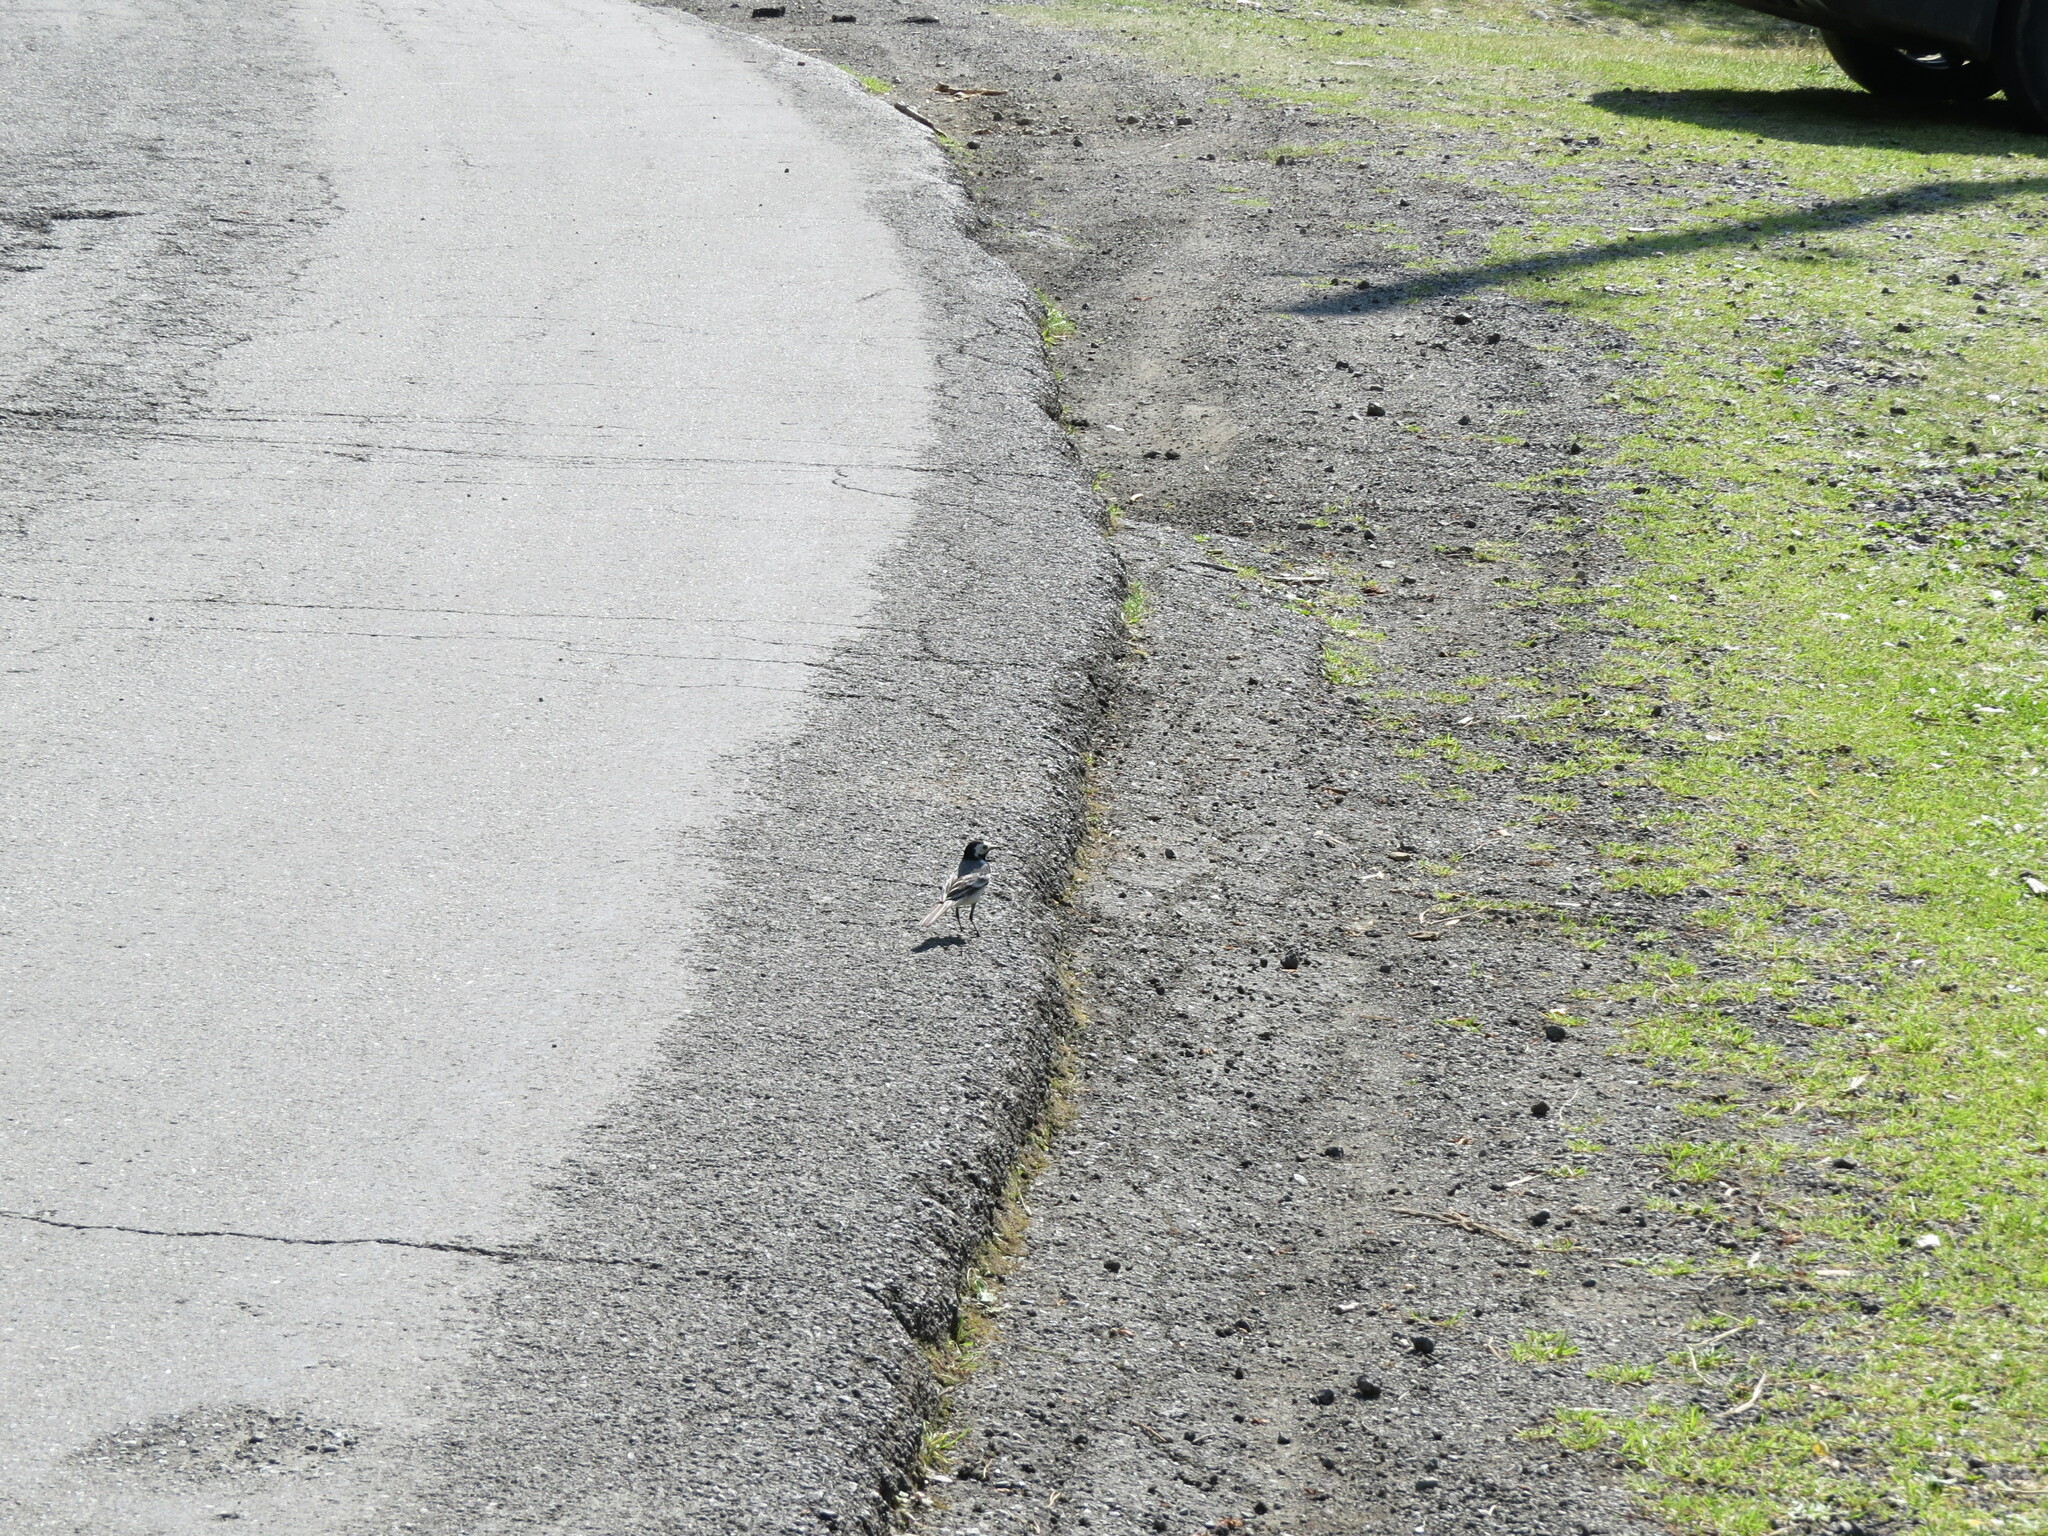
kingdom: Animalia
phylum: Chordata
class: Aves
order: Passeriformes
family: Motacillidae
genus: Motacilla
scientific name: Motacilla alba
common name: White wagtail
